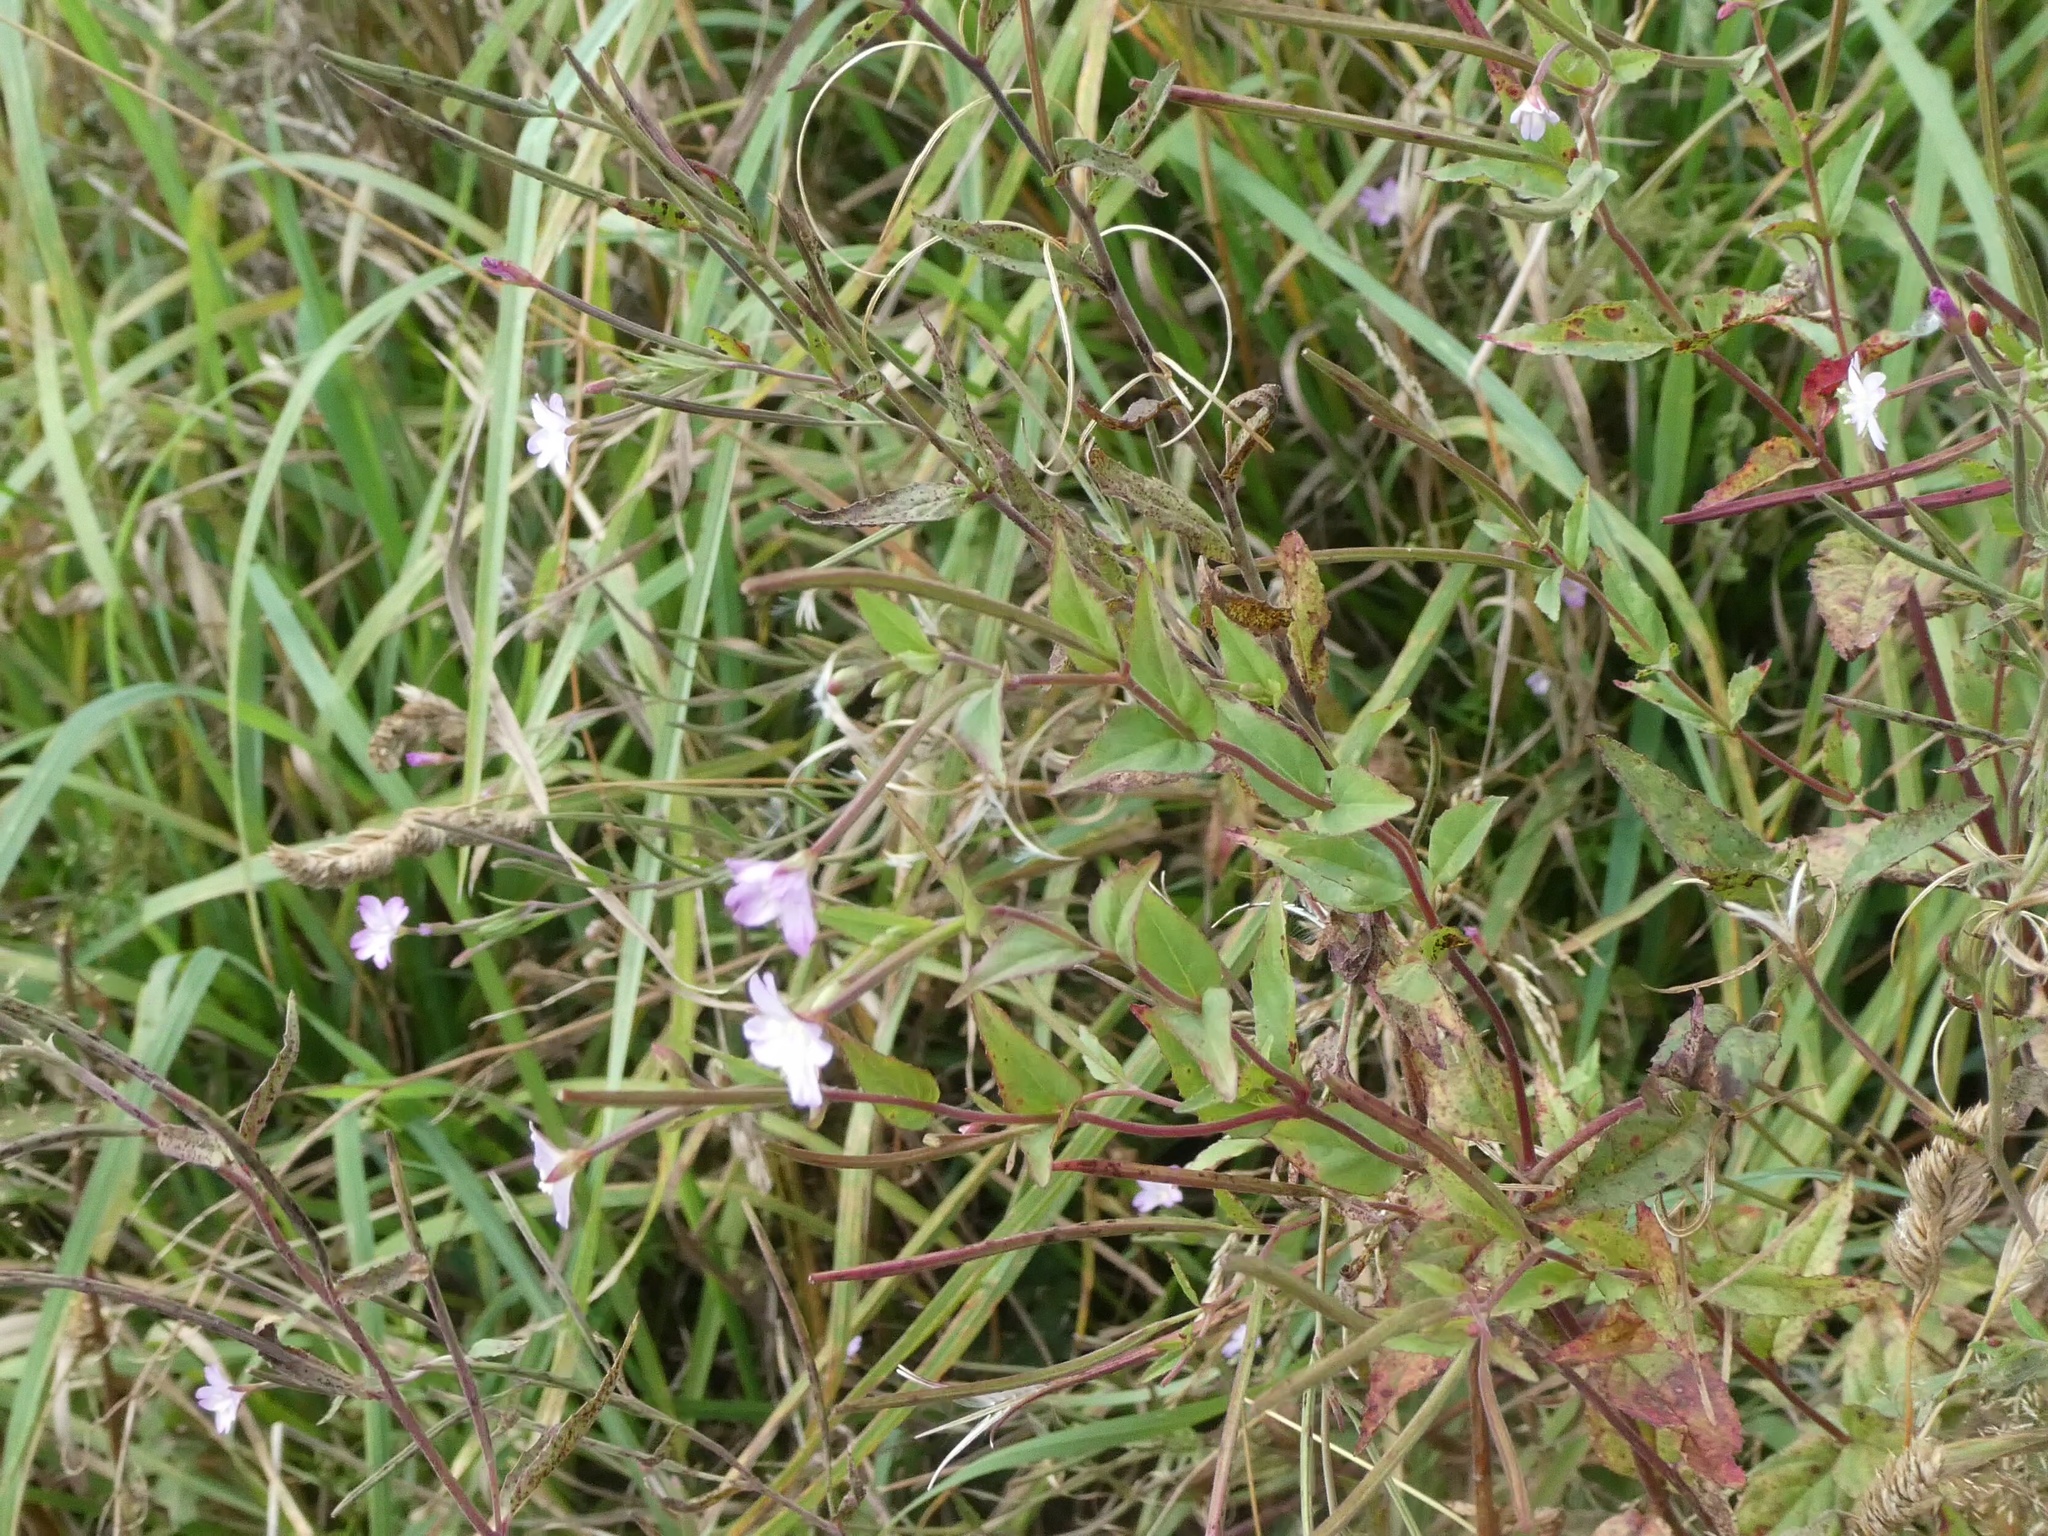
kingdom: Plantae
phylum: Tracheophyta
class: Magnoliopsida
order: Myrtales
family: Onagraceae
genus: Epilobium
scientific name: Epilobium montanum
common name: Broad-leaved willowherb
